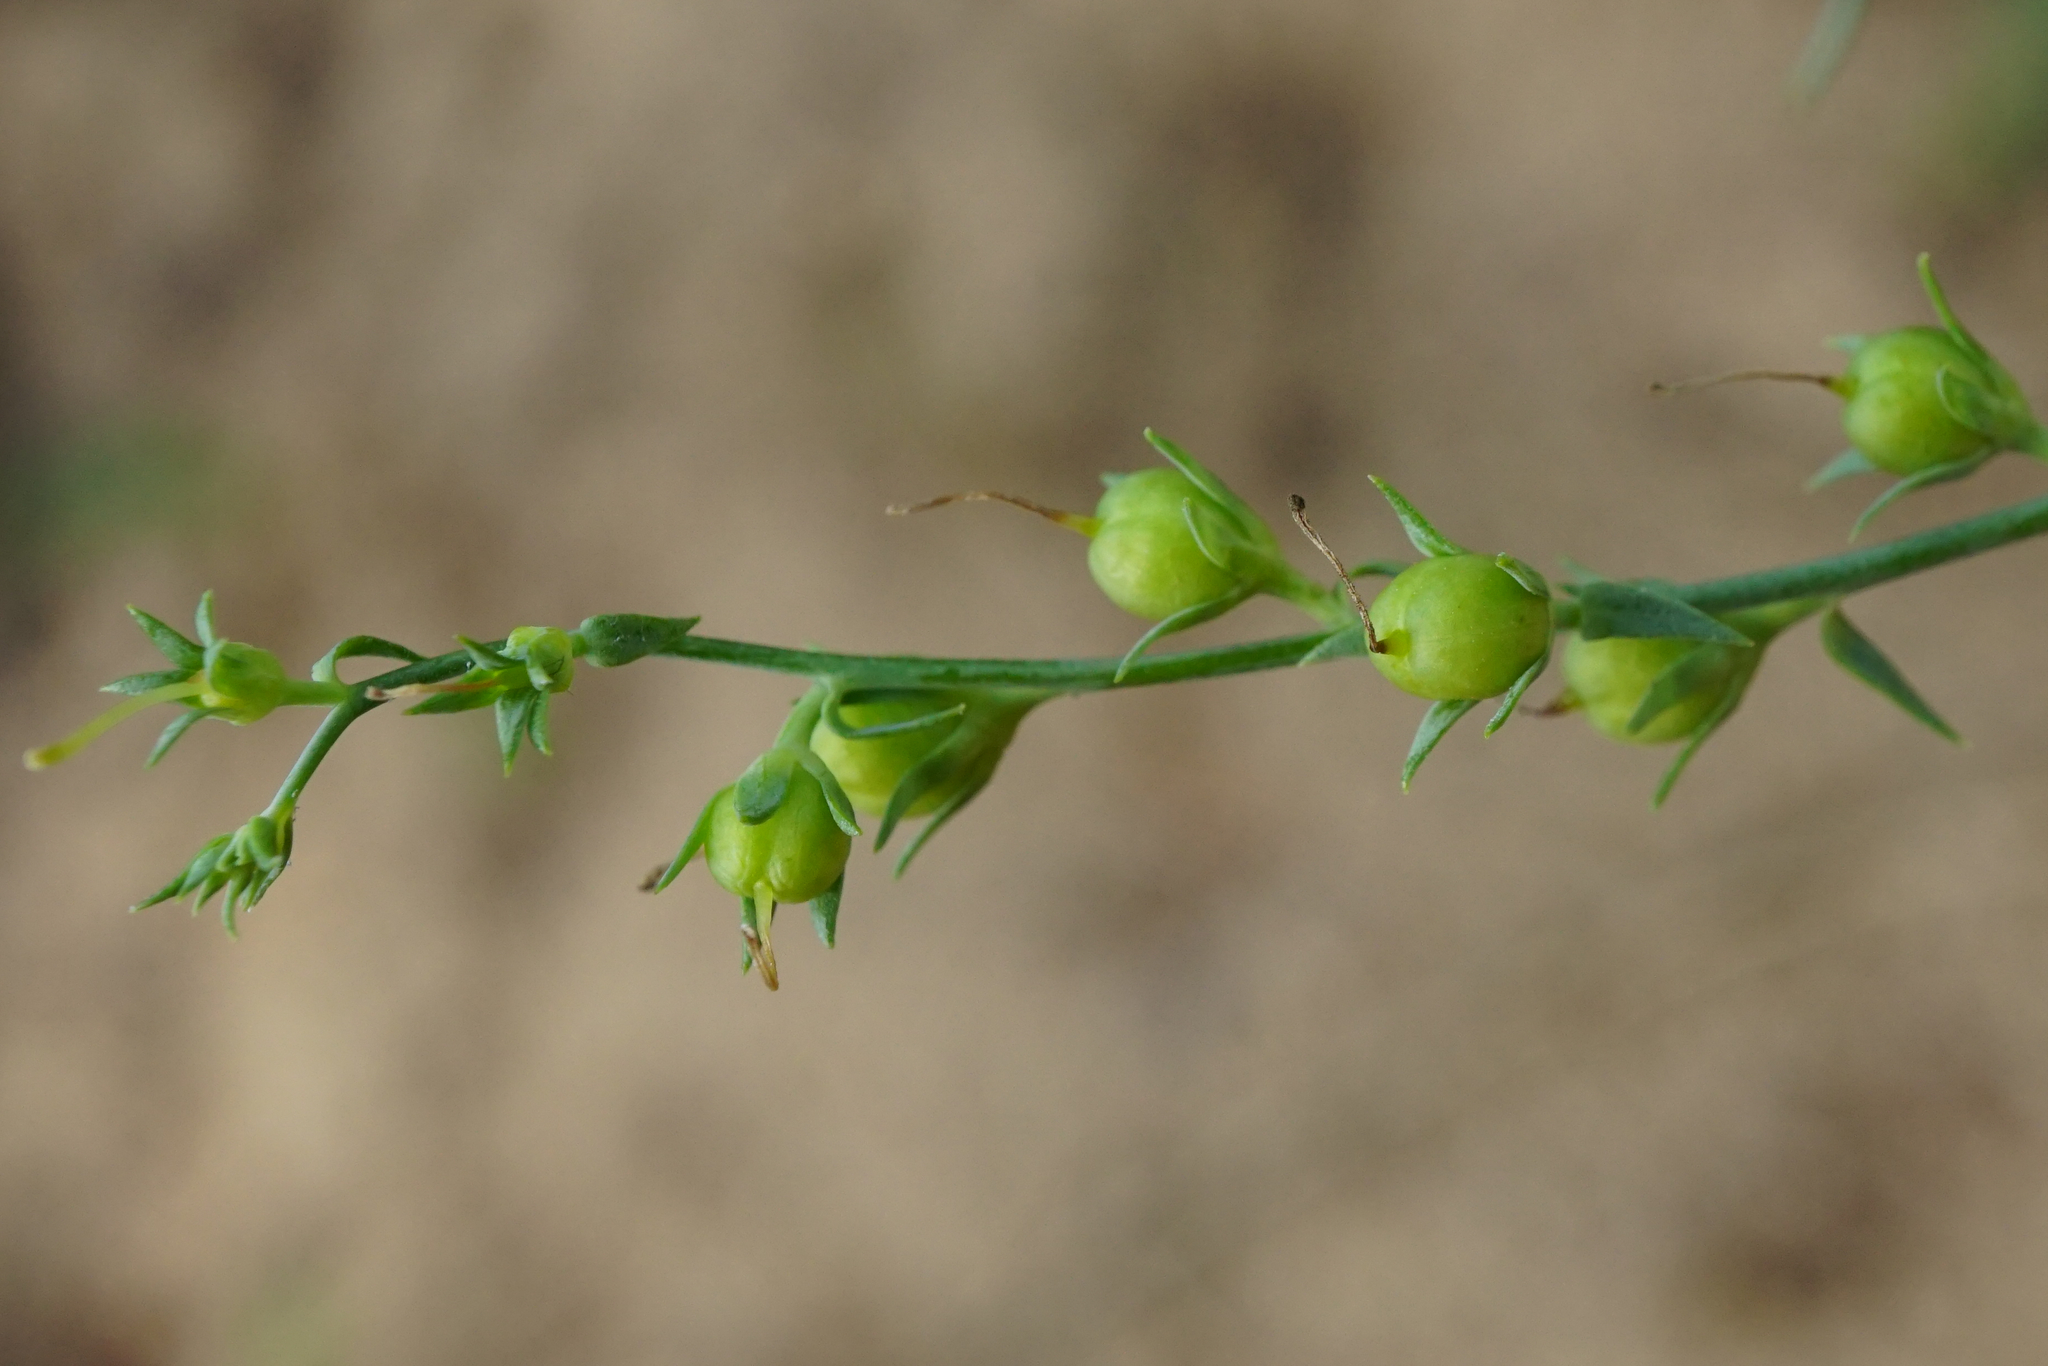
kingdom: Plantae
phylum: Tracheophyta
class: Magnoliopsida
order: Lamiales
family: Plantaginaceae
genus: Linaria
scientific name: Linaria genistifolia
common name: Broomleaf toadflax
